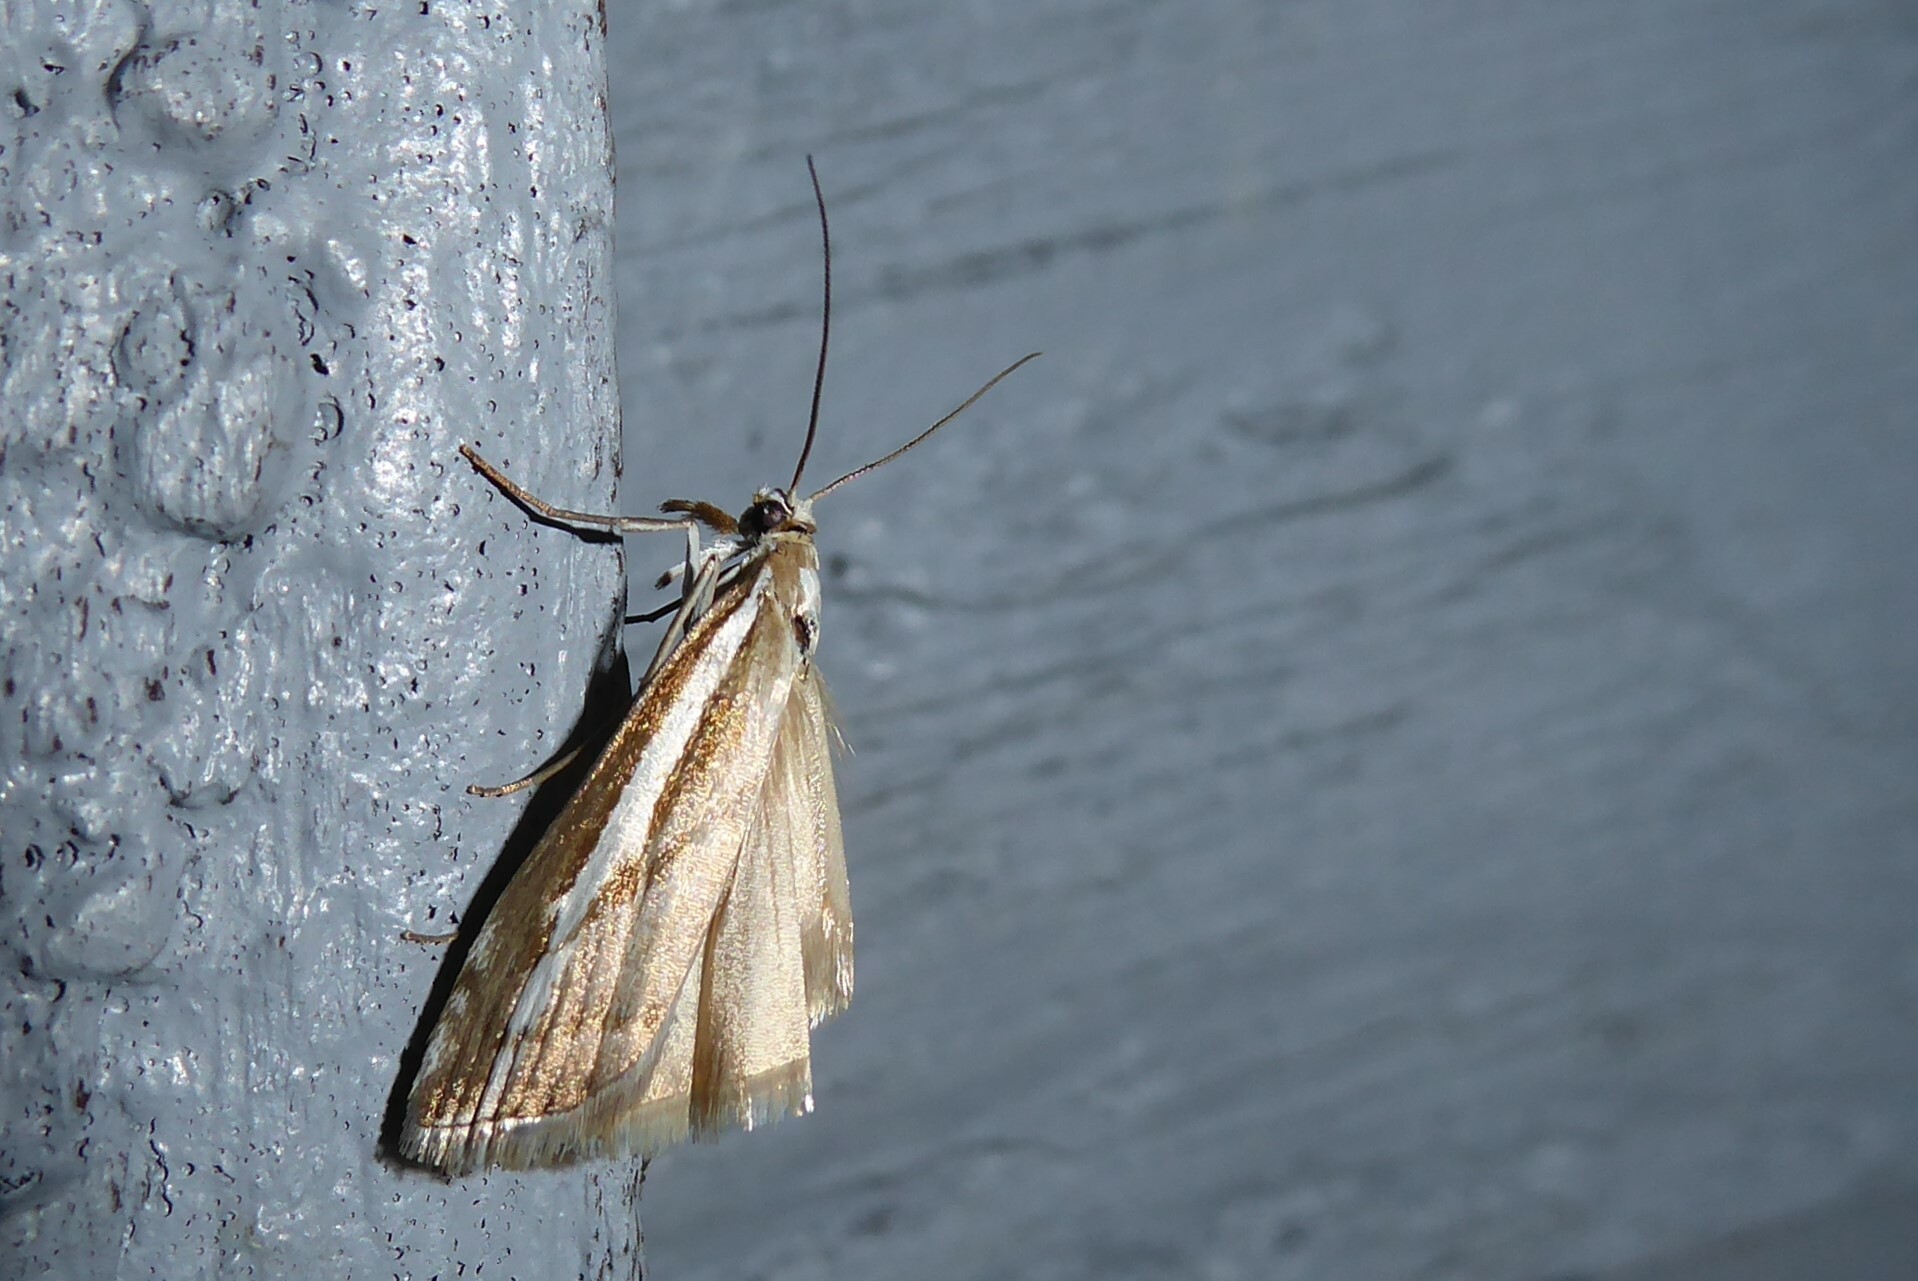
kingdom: Animalia
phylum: Arthropoda
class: Insecta
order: Lepidoptera
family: Crambidae
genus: Orocrambus
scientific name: Orocrambus vittellus
